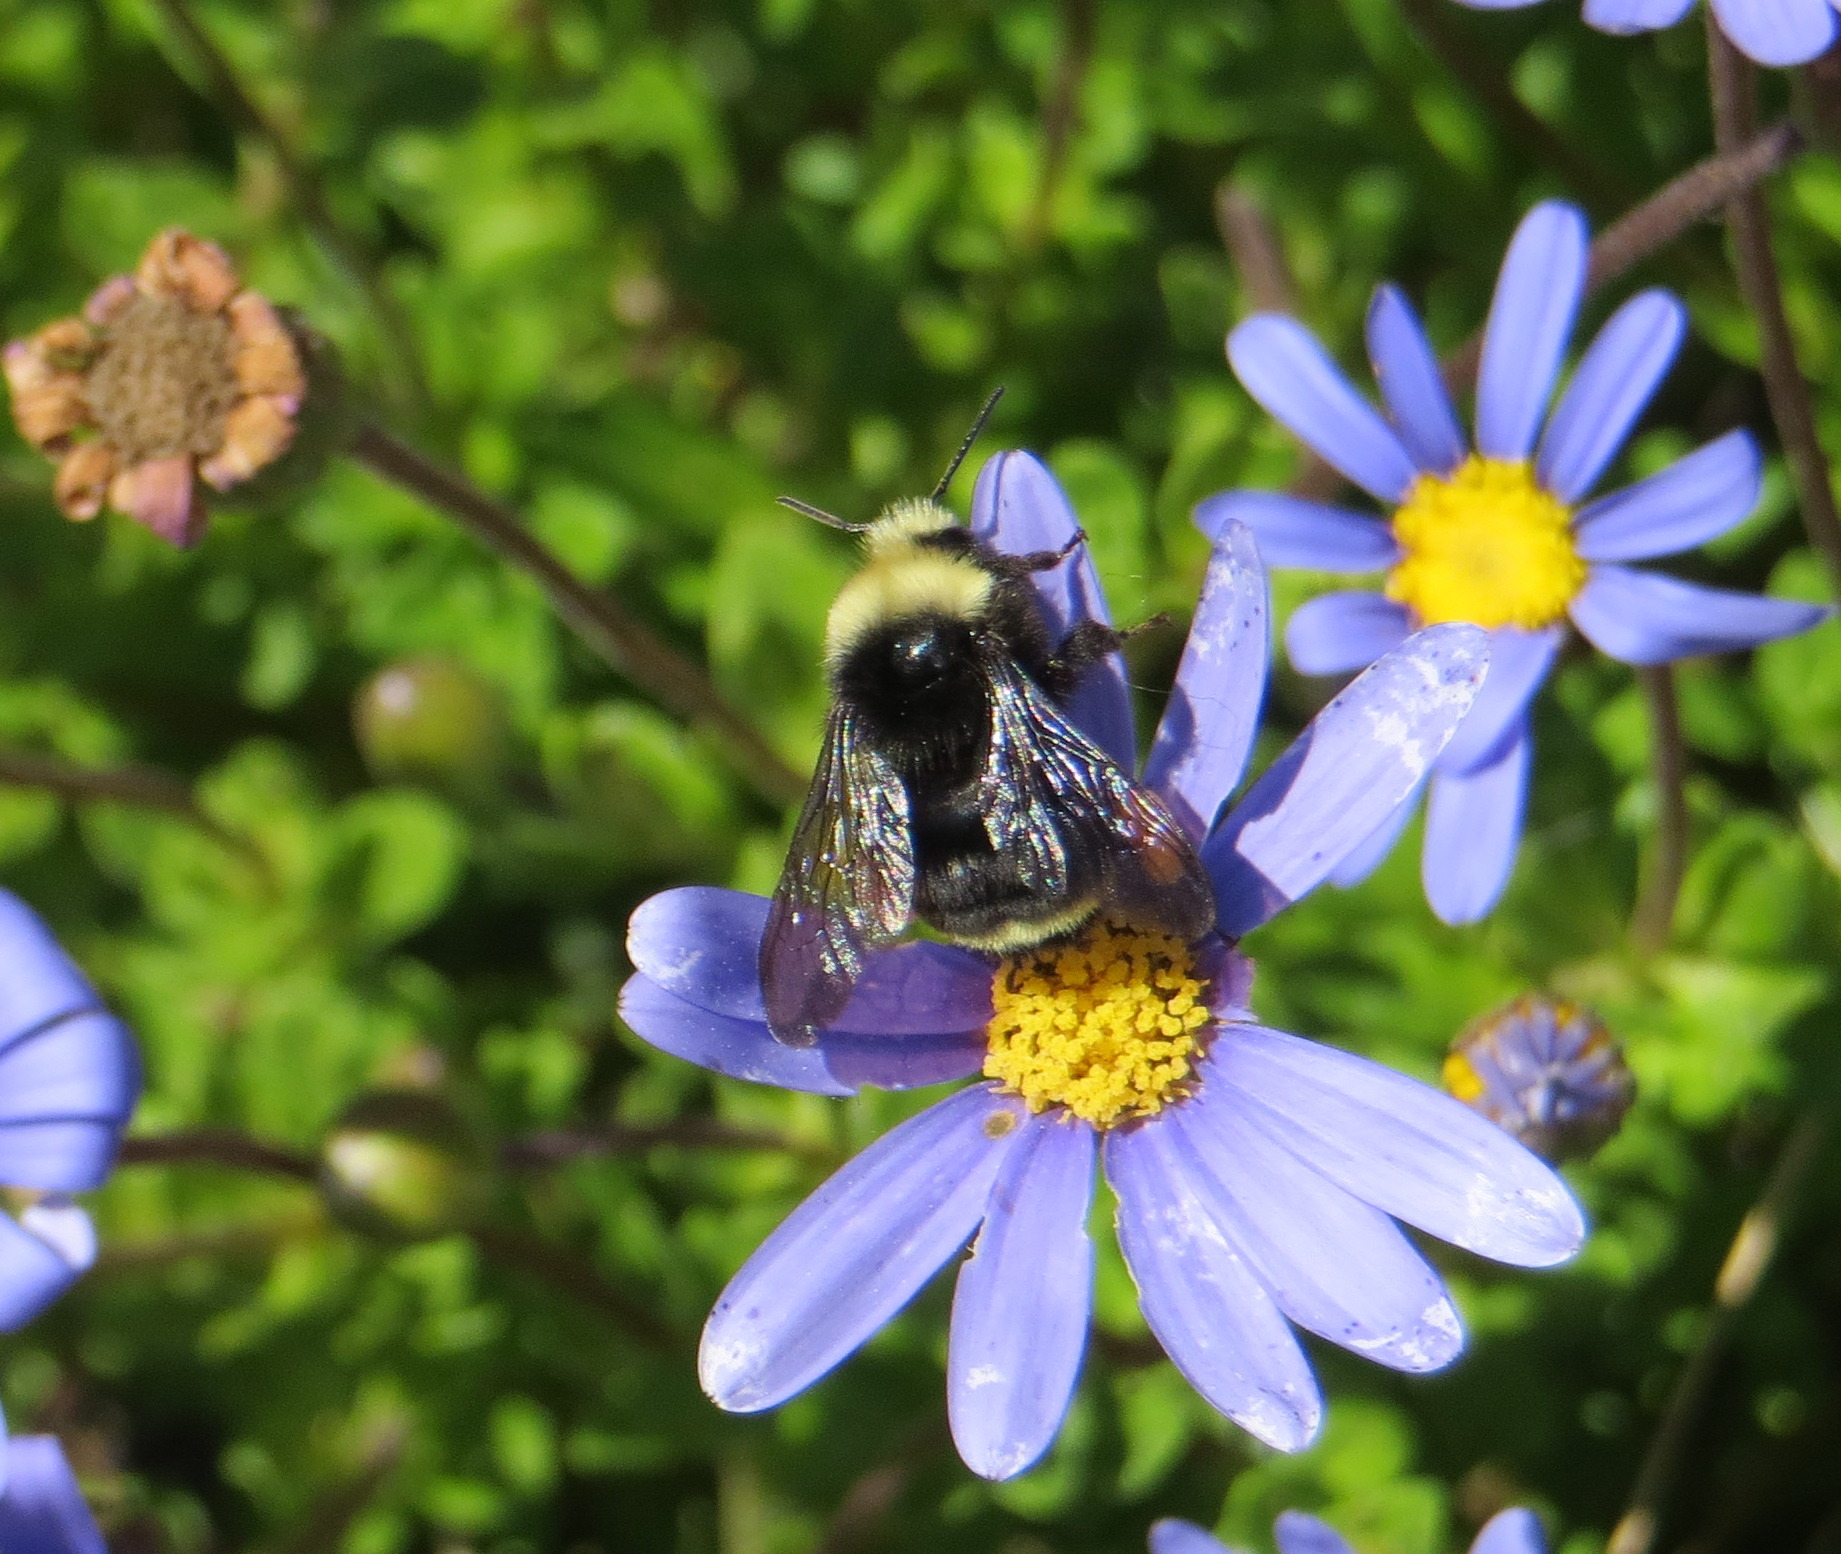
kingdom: Animalia
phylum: Arthropoda
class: Insecta
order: Hymenoptera
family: Apidae
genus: Pyrobombus
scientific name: Pyrobombus
